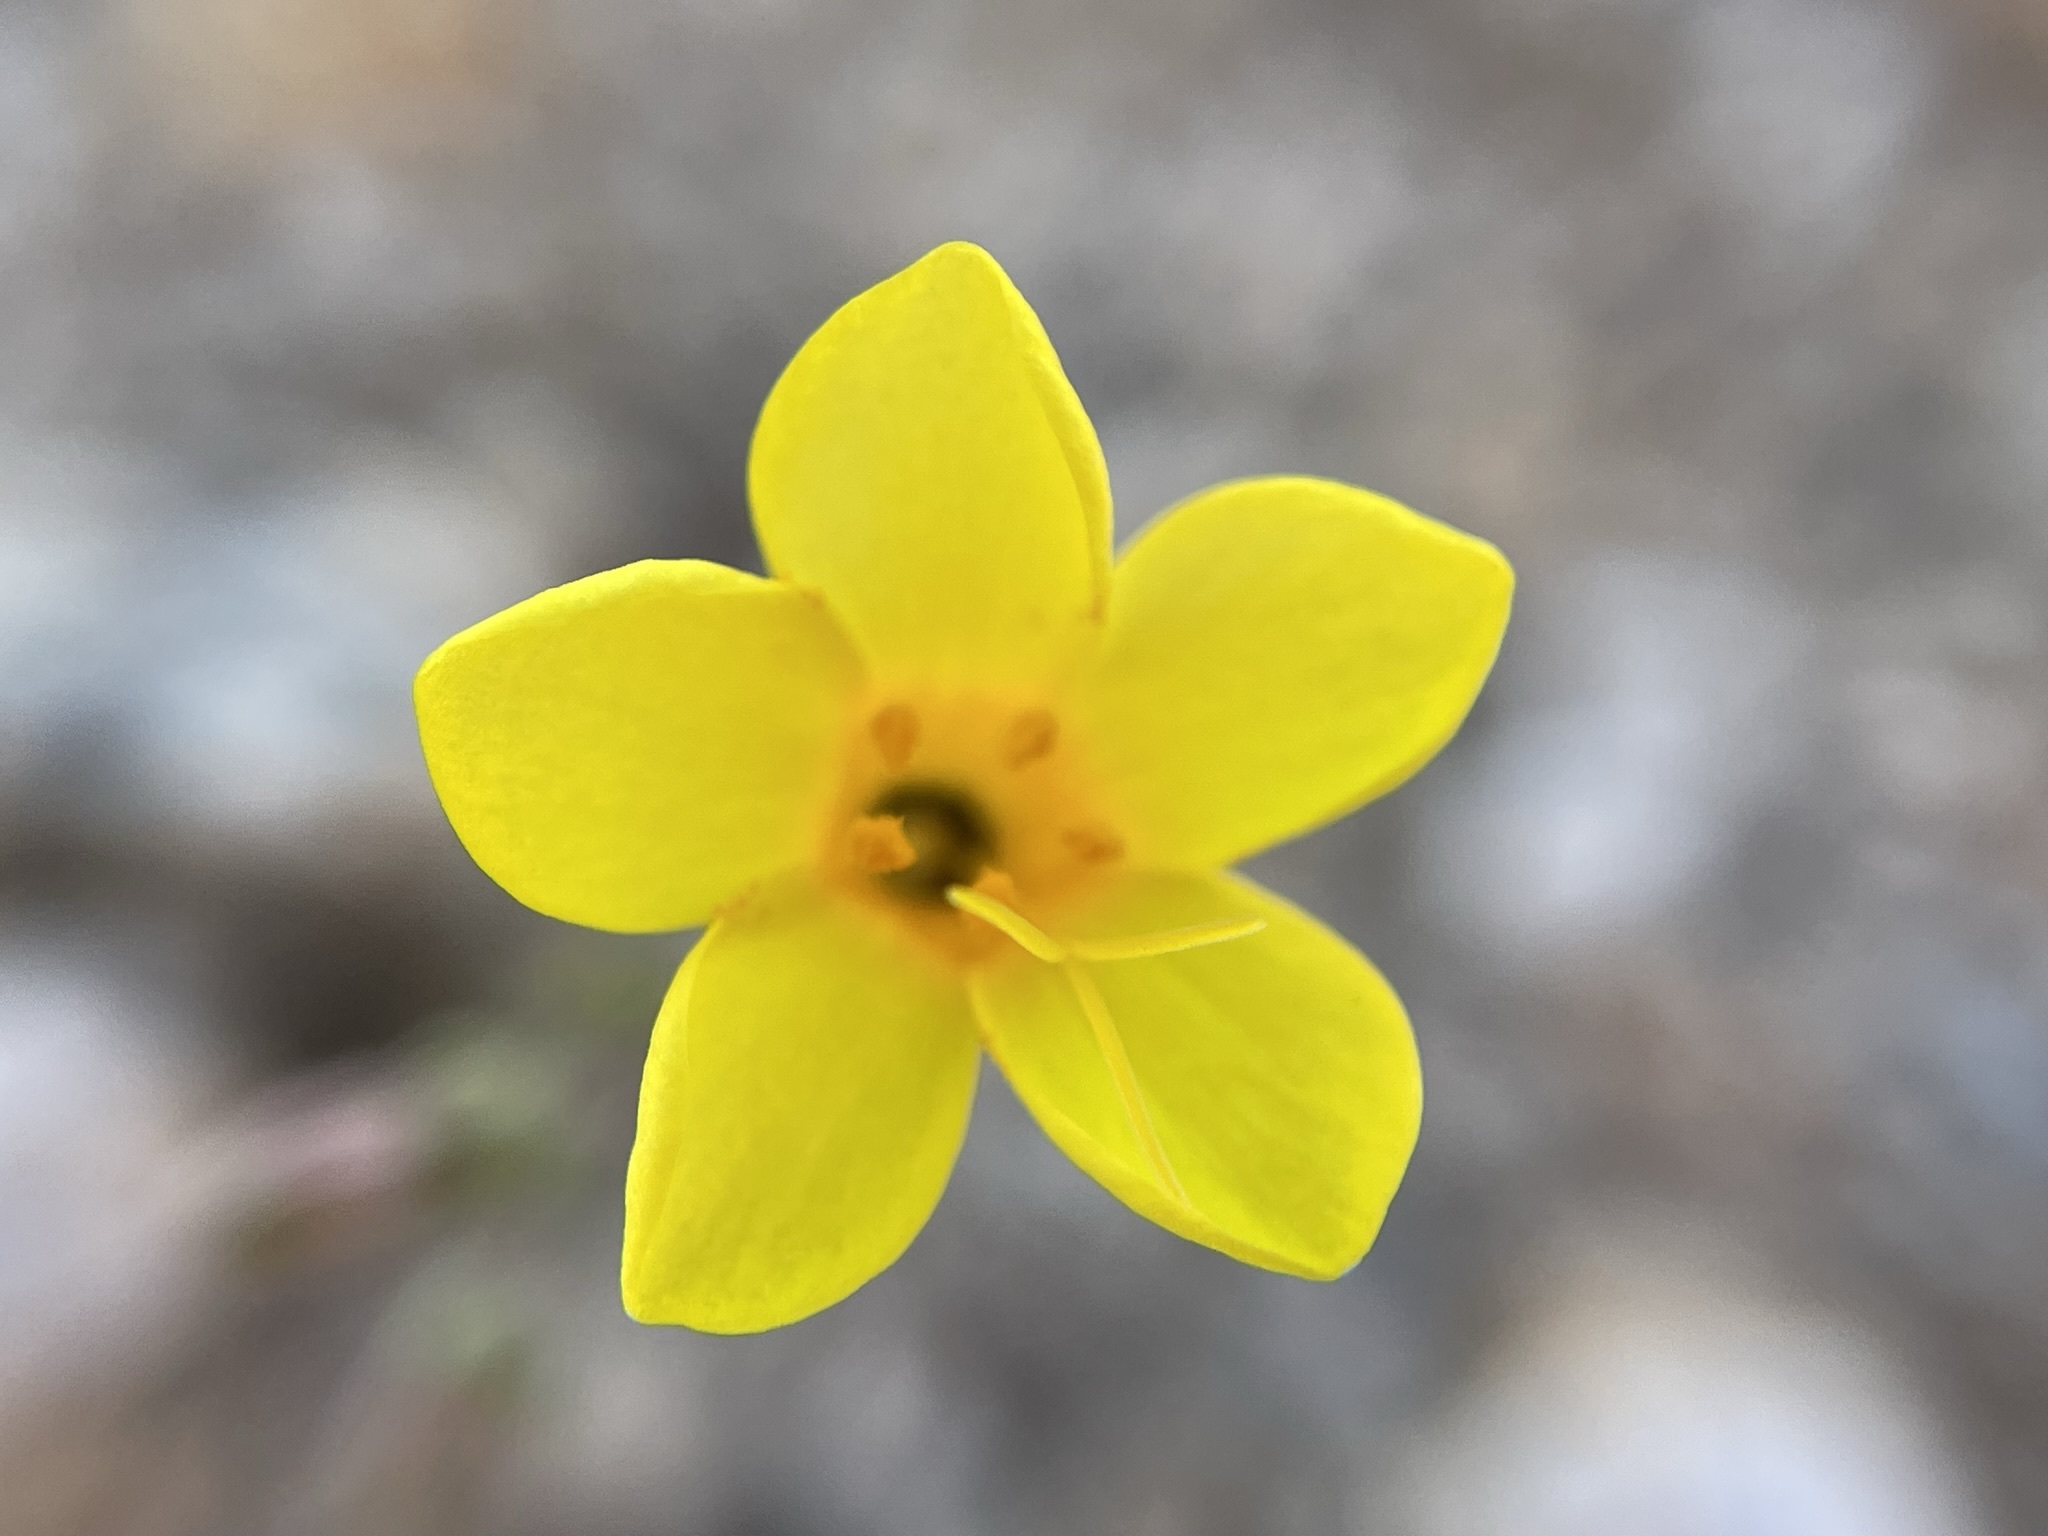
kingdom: Plantae
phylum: Tracheophyta
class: Magnoliopsida
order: Ericales
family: Polemoniaceae
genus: Leptosiphon
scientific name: Leptosiphon chrysanthus
